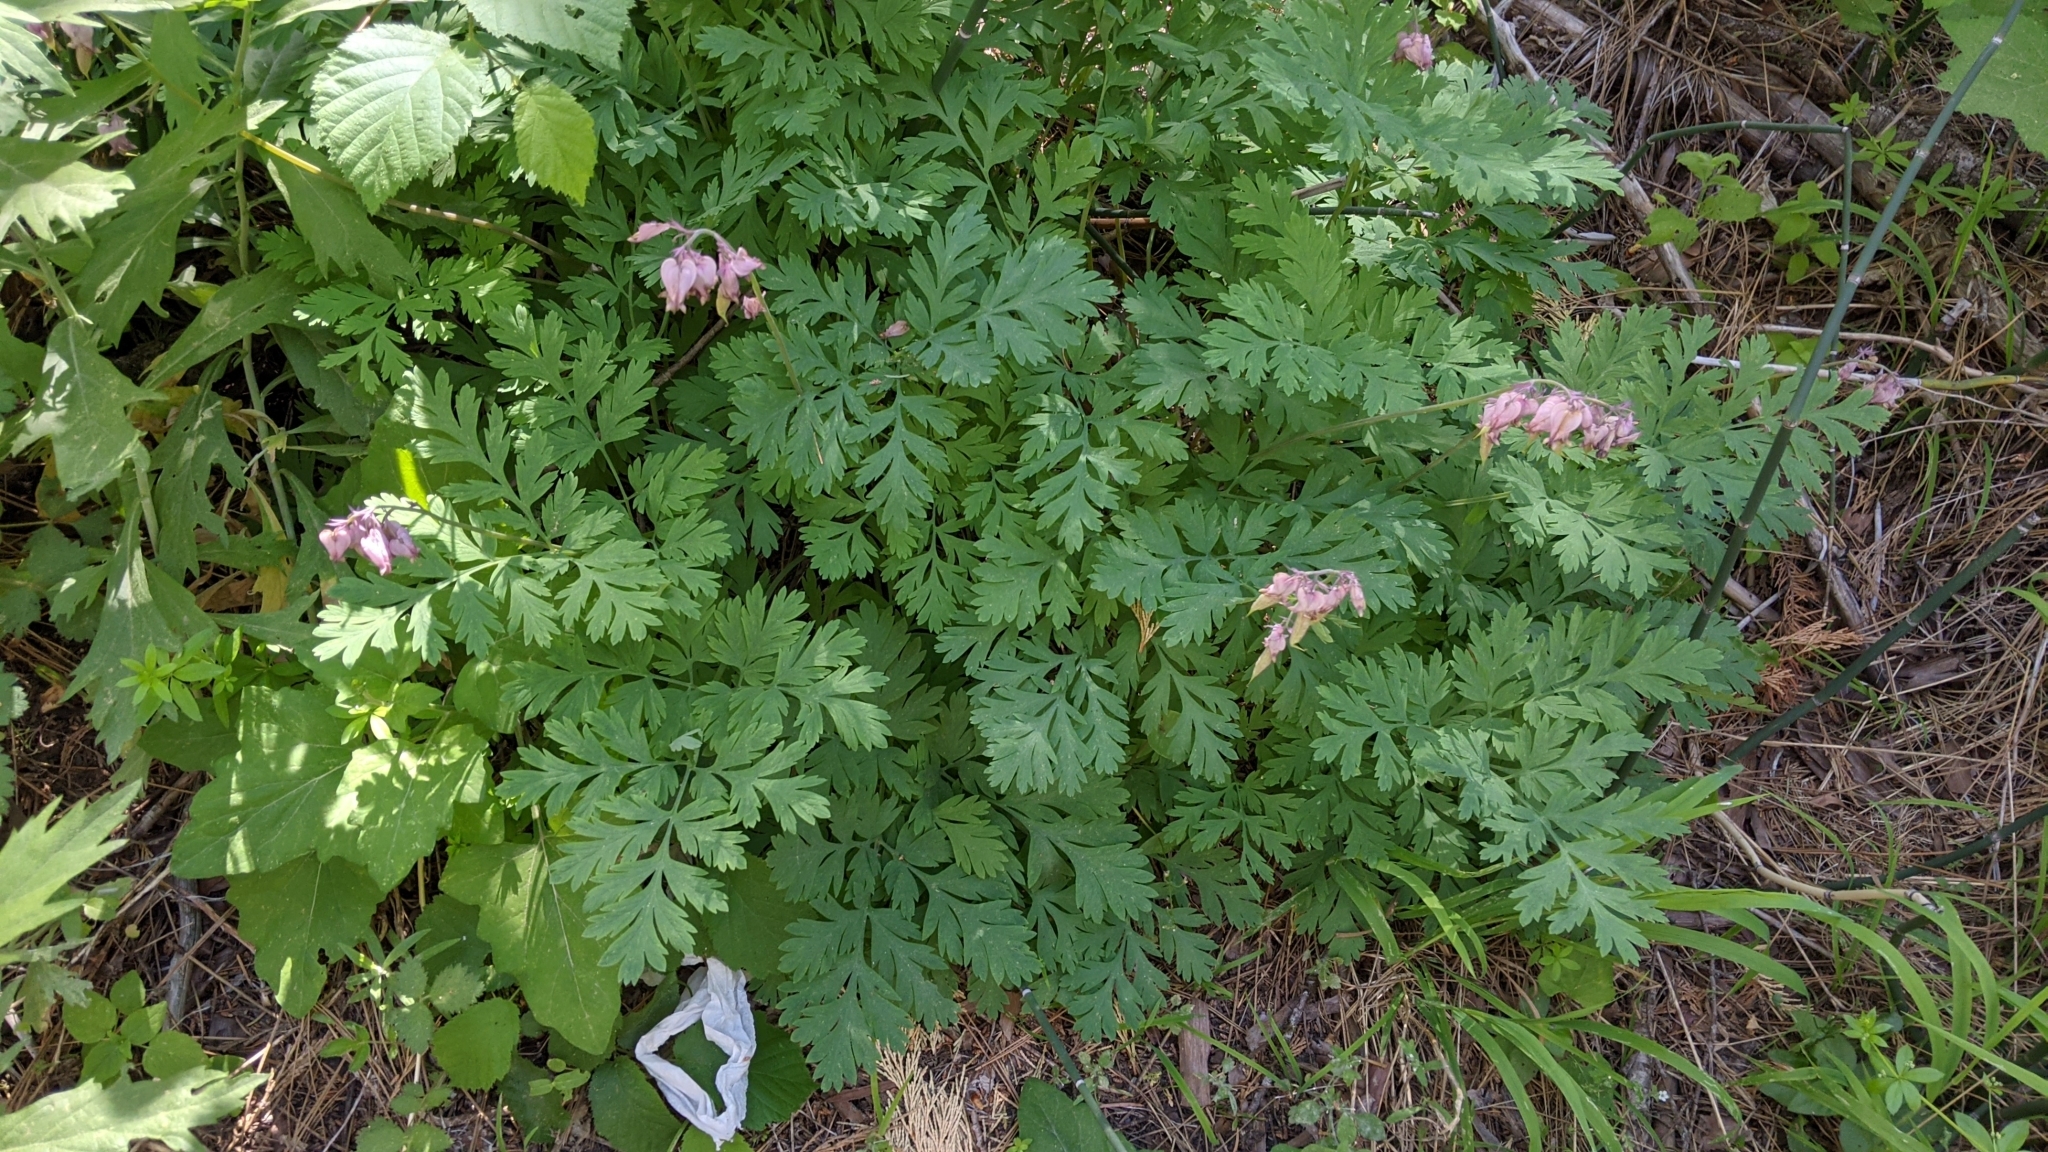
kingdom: Plantae
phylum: Tracheophyta
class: Magnoliopsida
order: Ranunculales
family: Papaveraceae
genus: Dicentra
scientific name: Dicentra formosa
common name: Bleeding-heart
